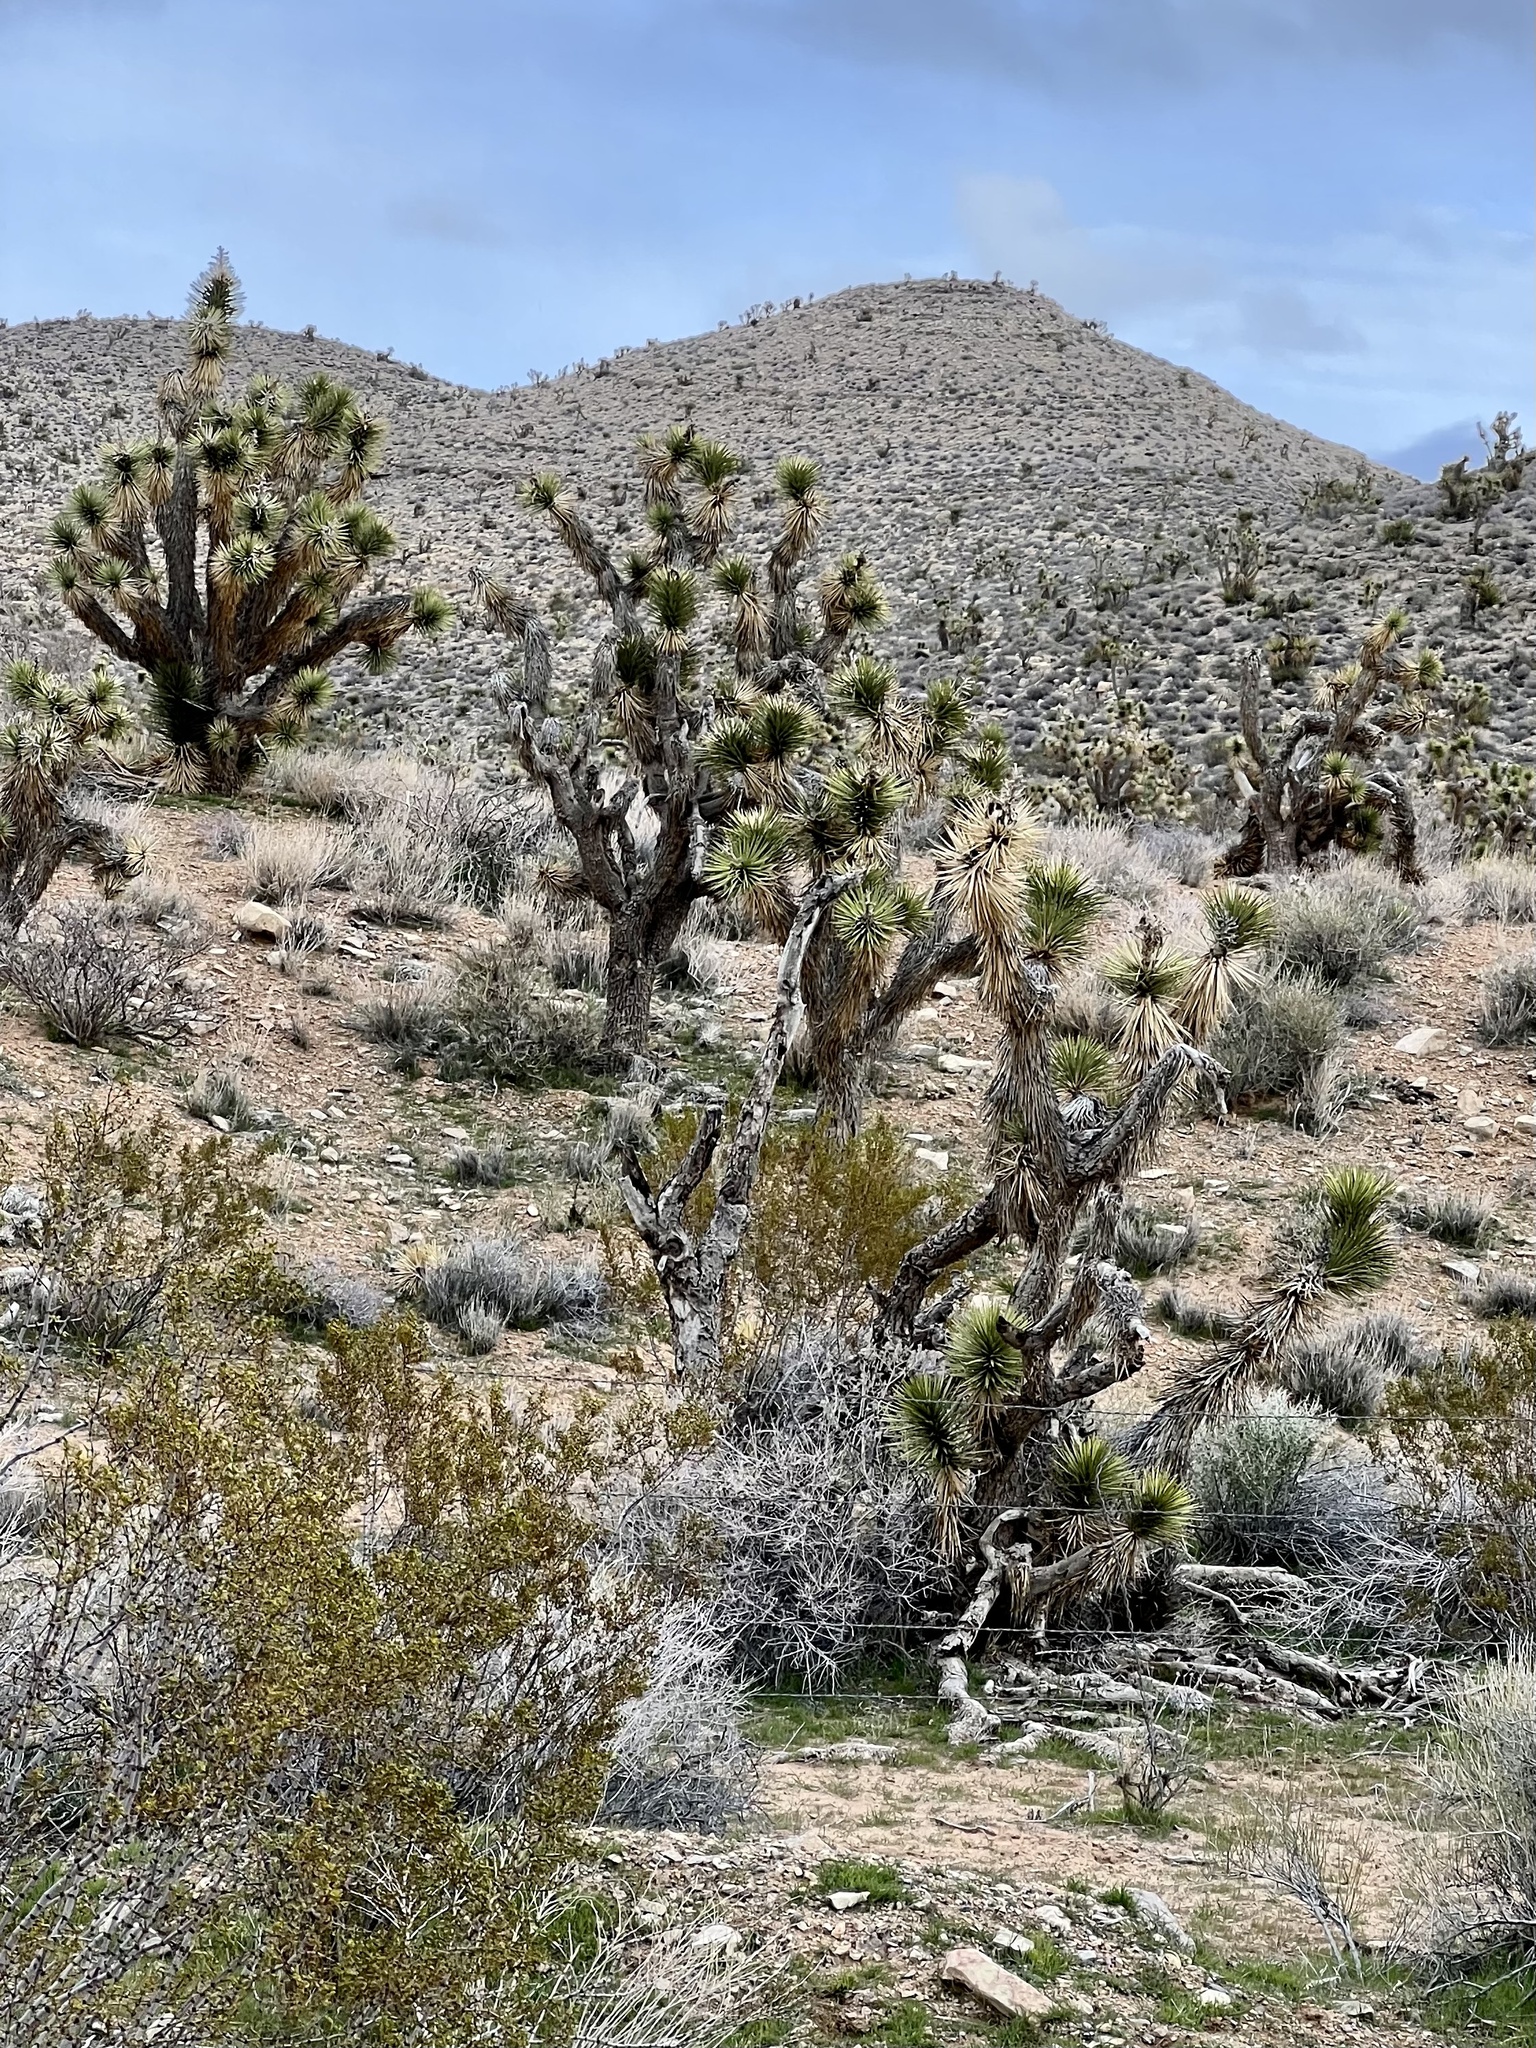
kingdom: Plantae
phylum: Tracheophyta
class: Liliopsida
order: Asparagales
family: Asparagaceae
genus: Yucca
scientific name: Yucca brevifolia
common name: Joshua tree
